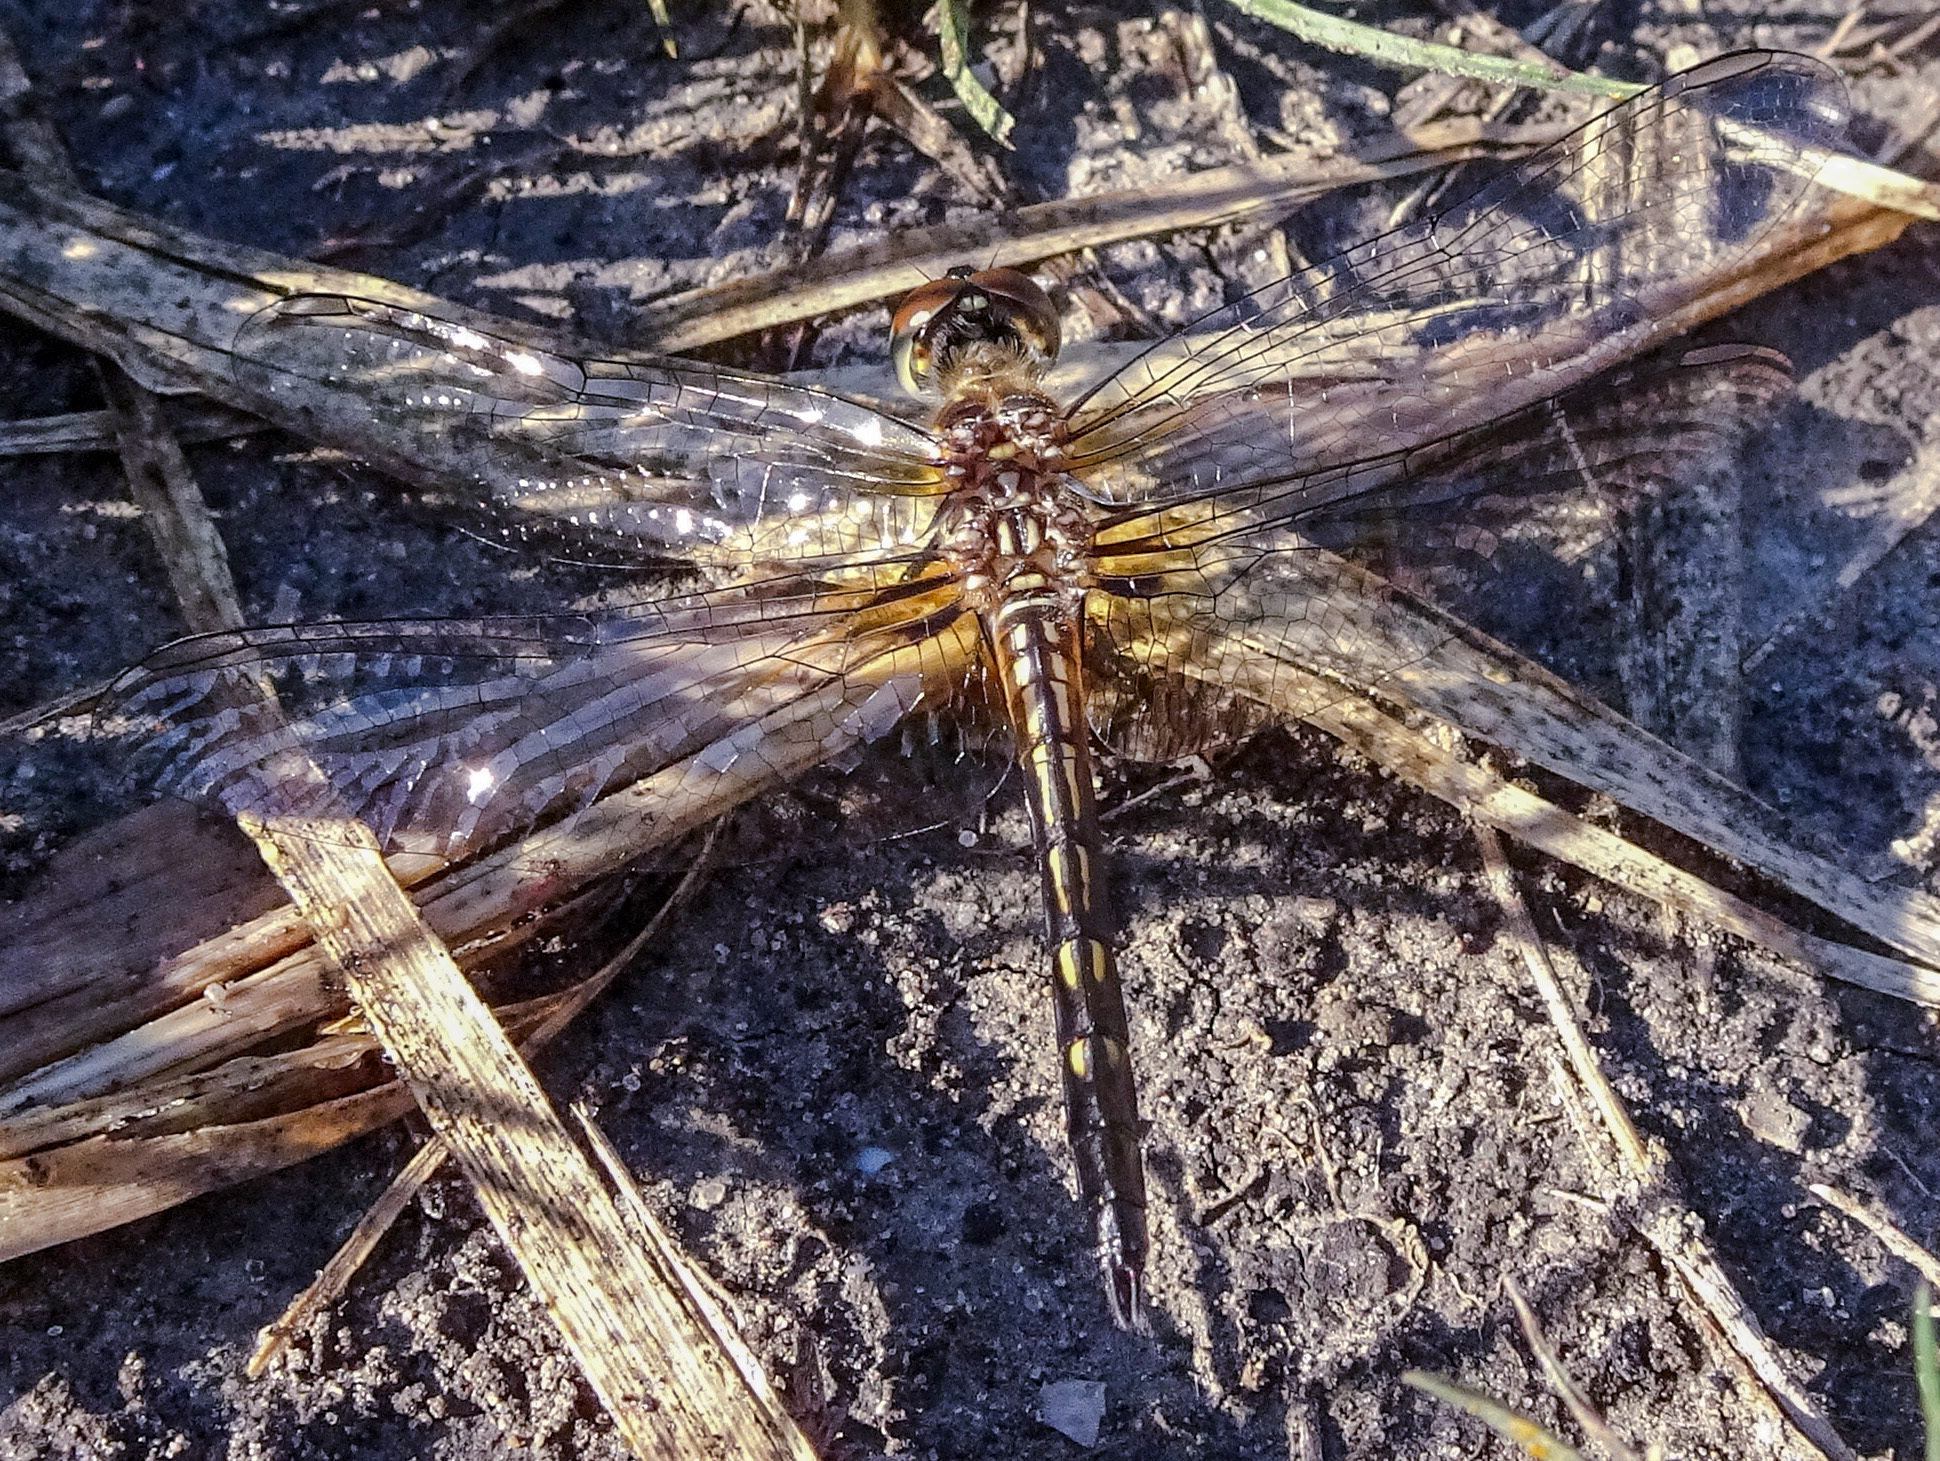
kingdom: Animalia
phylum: Arthropoda
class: Insecta
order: Odonata
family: Libellulidae
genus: Pachydiplax
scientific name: Pachydiplax longipennis
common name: Blue dasher
